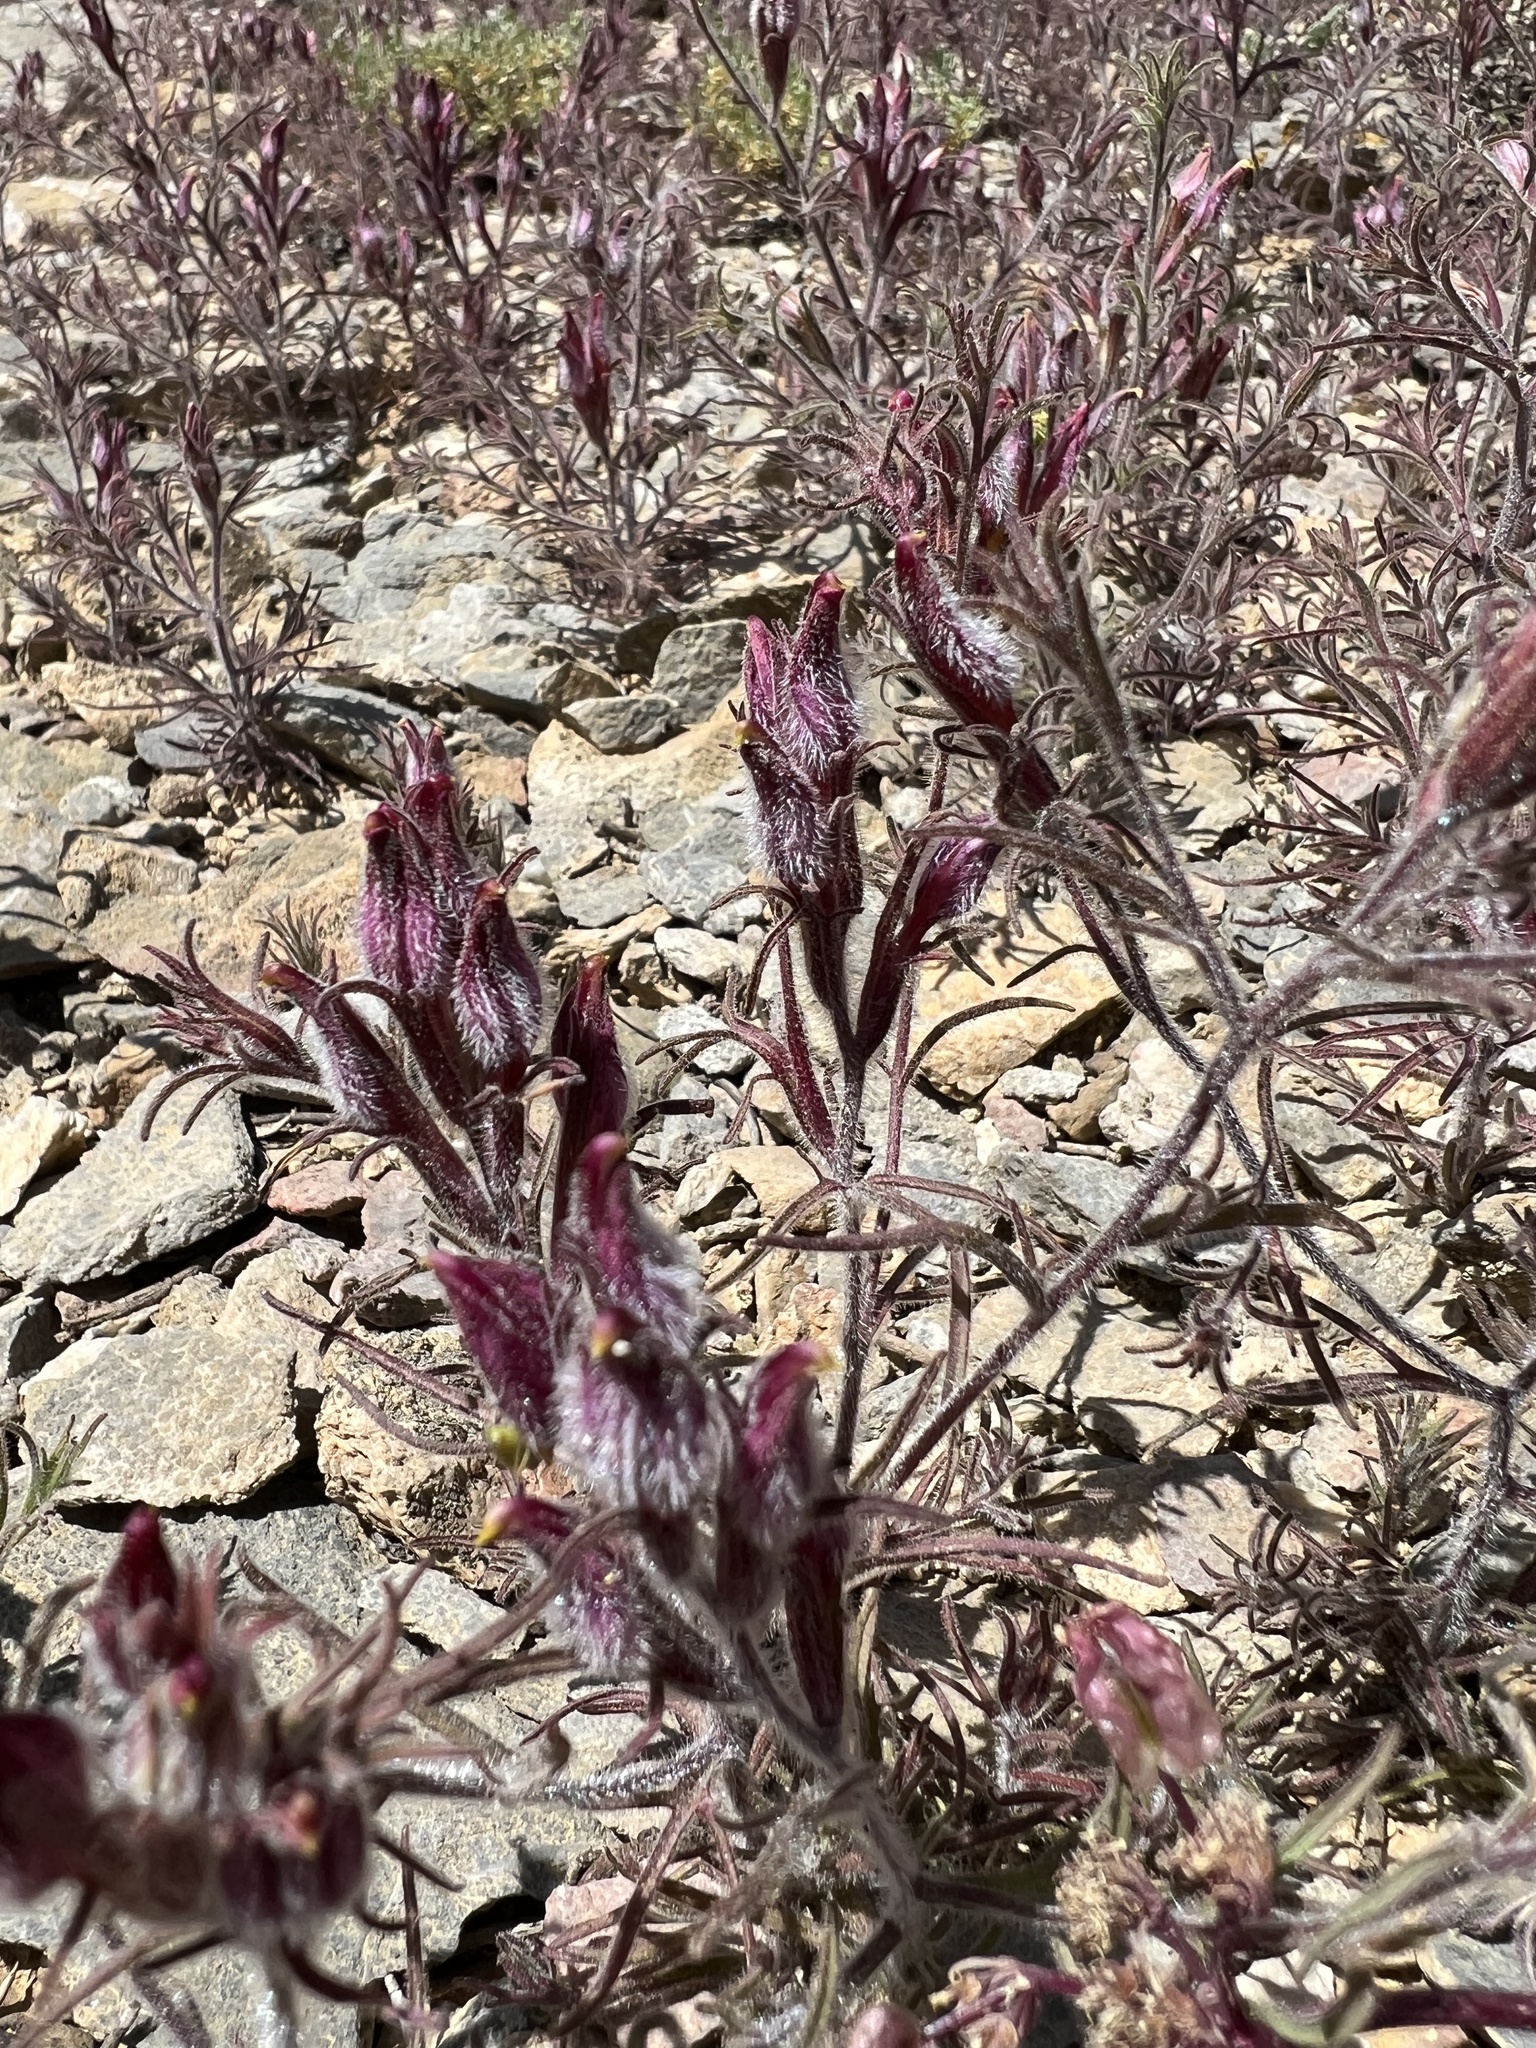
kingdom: Plantae
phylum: Tracheophyta
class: Magnoliopsida
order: Lamiales
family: Orobanchaceae
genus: Cordylanthus
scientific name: Cordylanthus kingii
